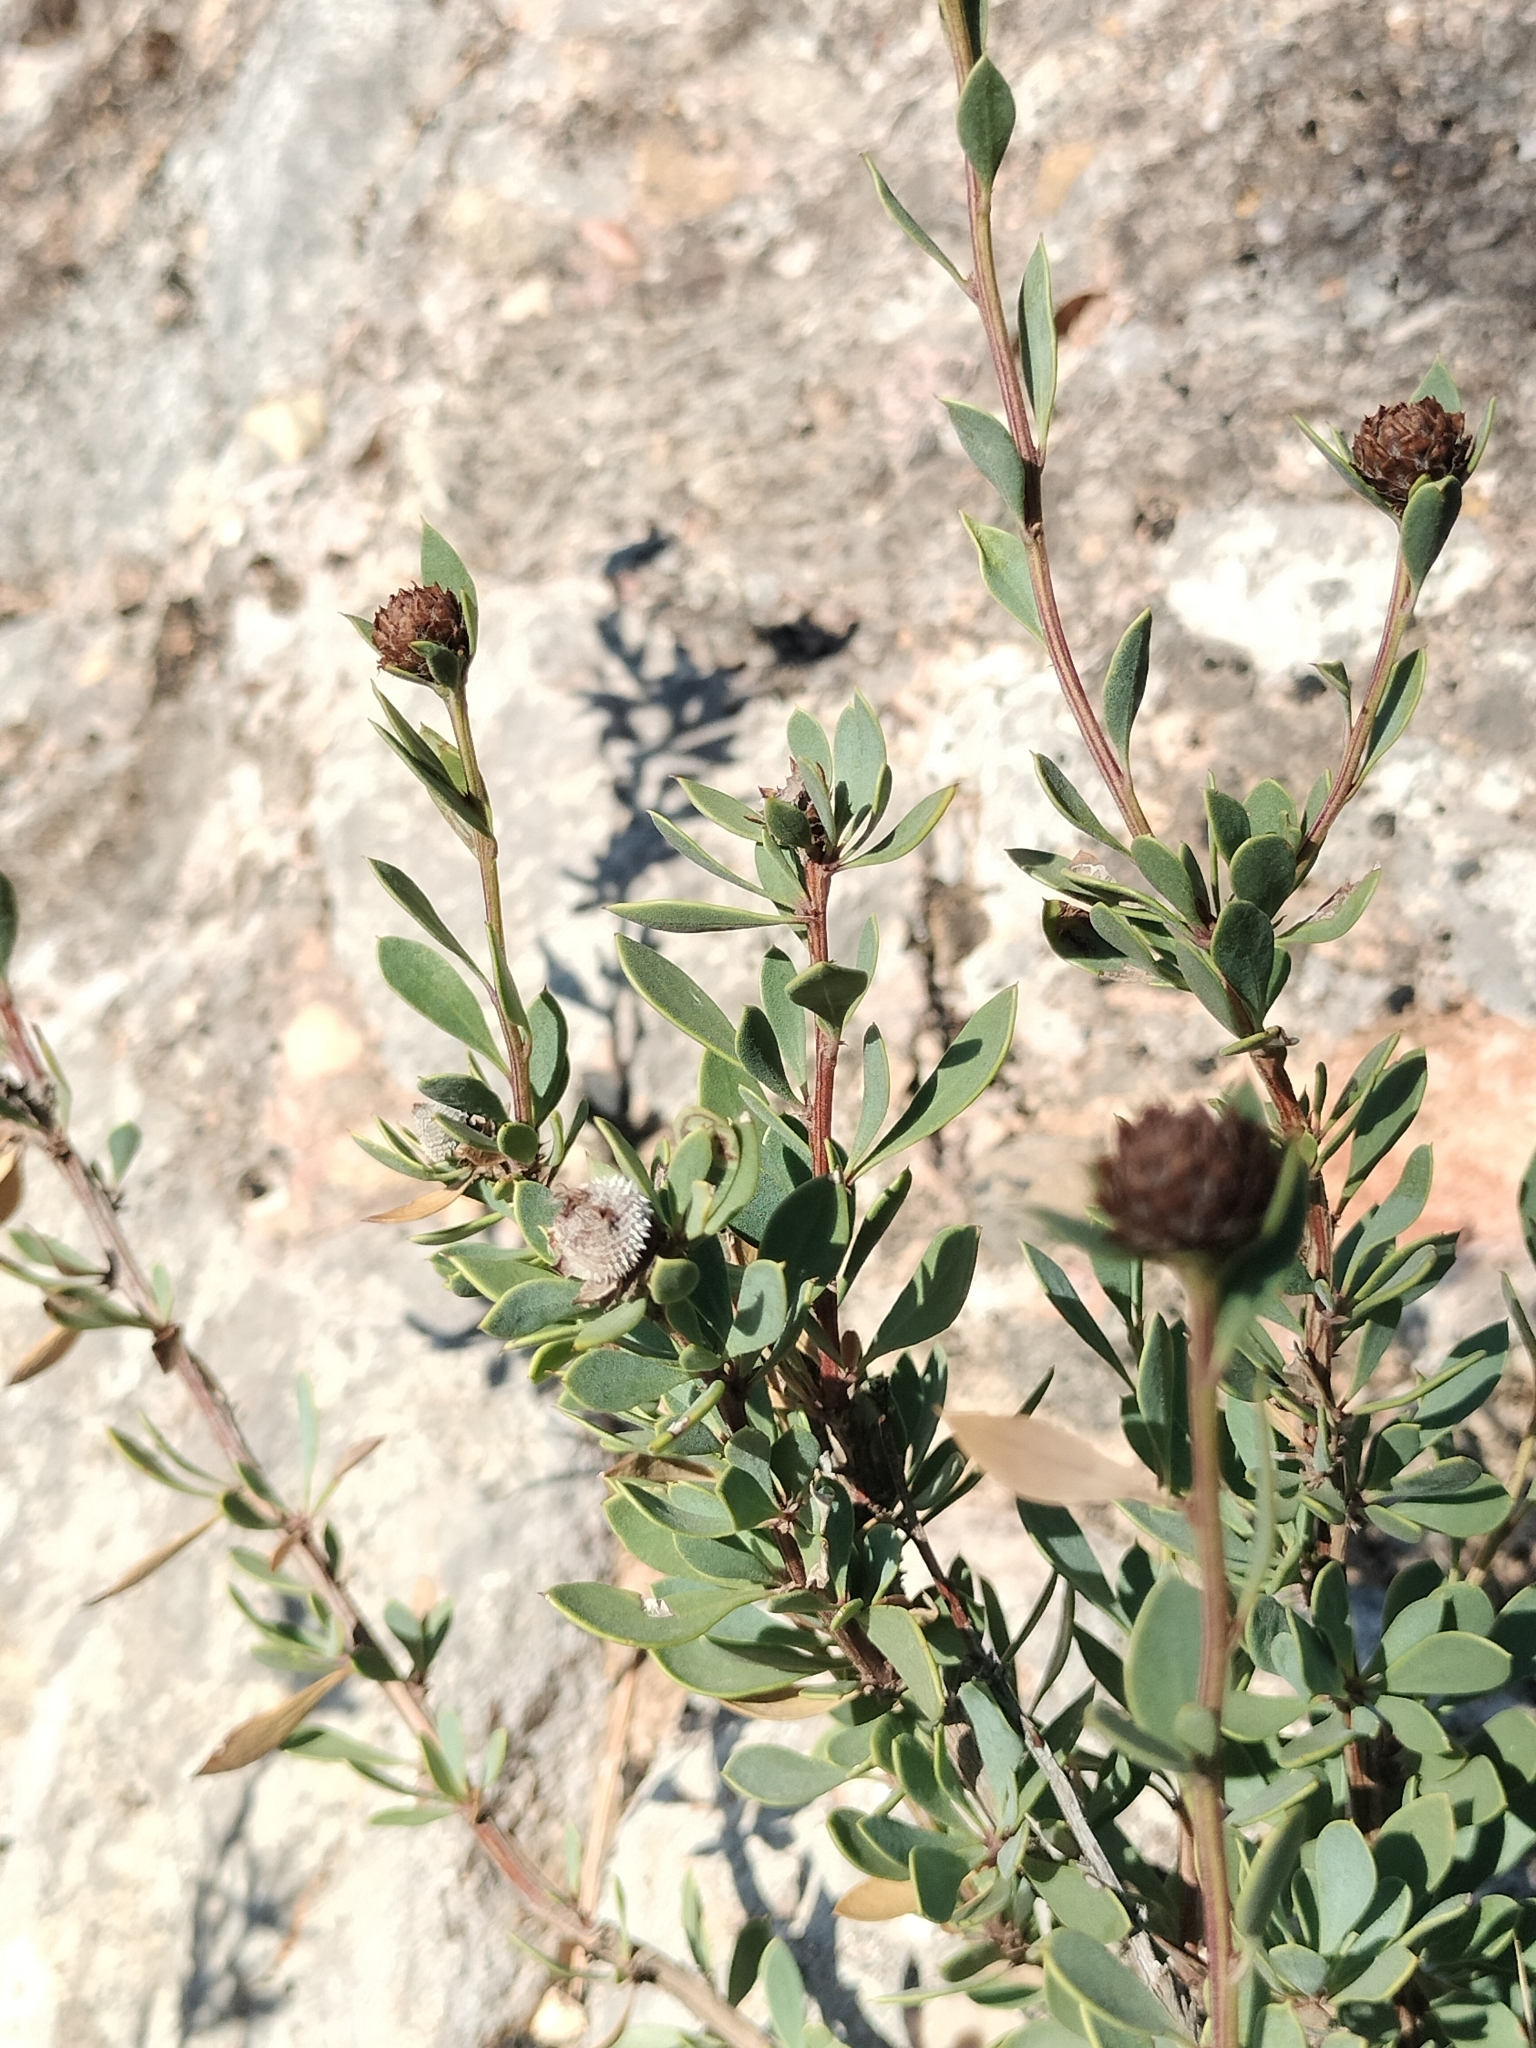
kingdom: Plantae
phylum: Tracheophyta
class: Magnoliopsida
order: Lamiales
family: Plantaginaceae
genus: Globularia
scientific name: Globularia alypum
